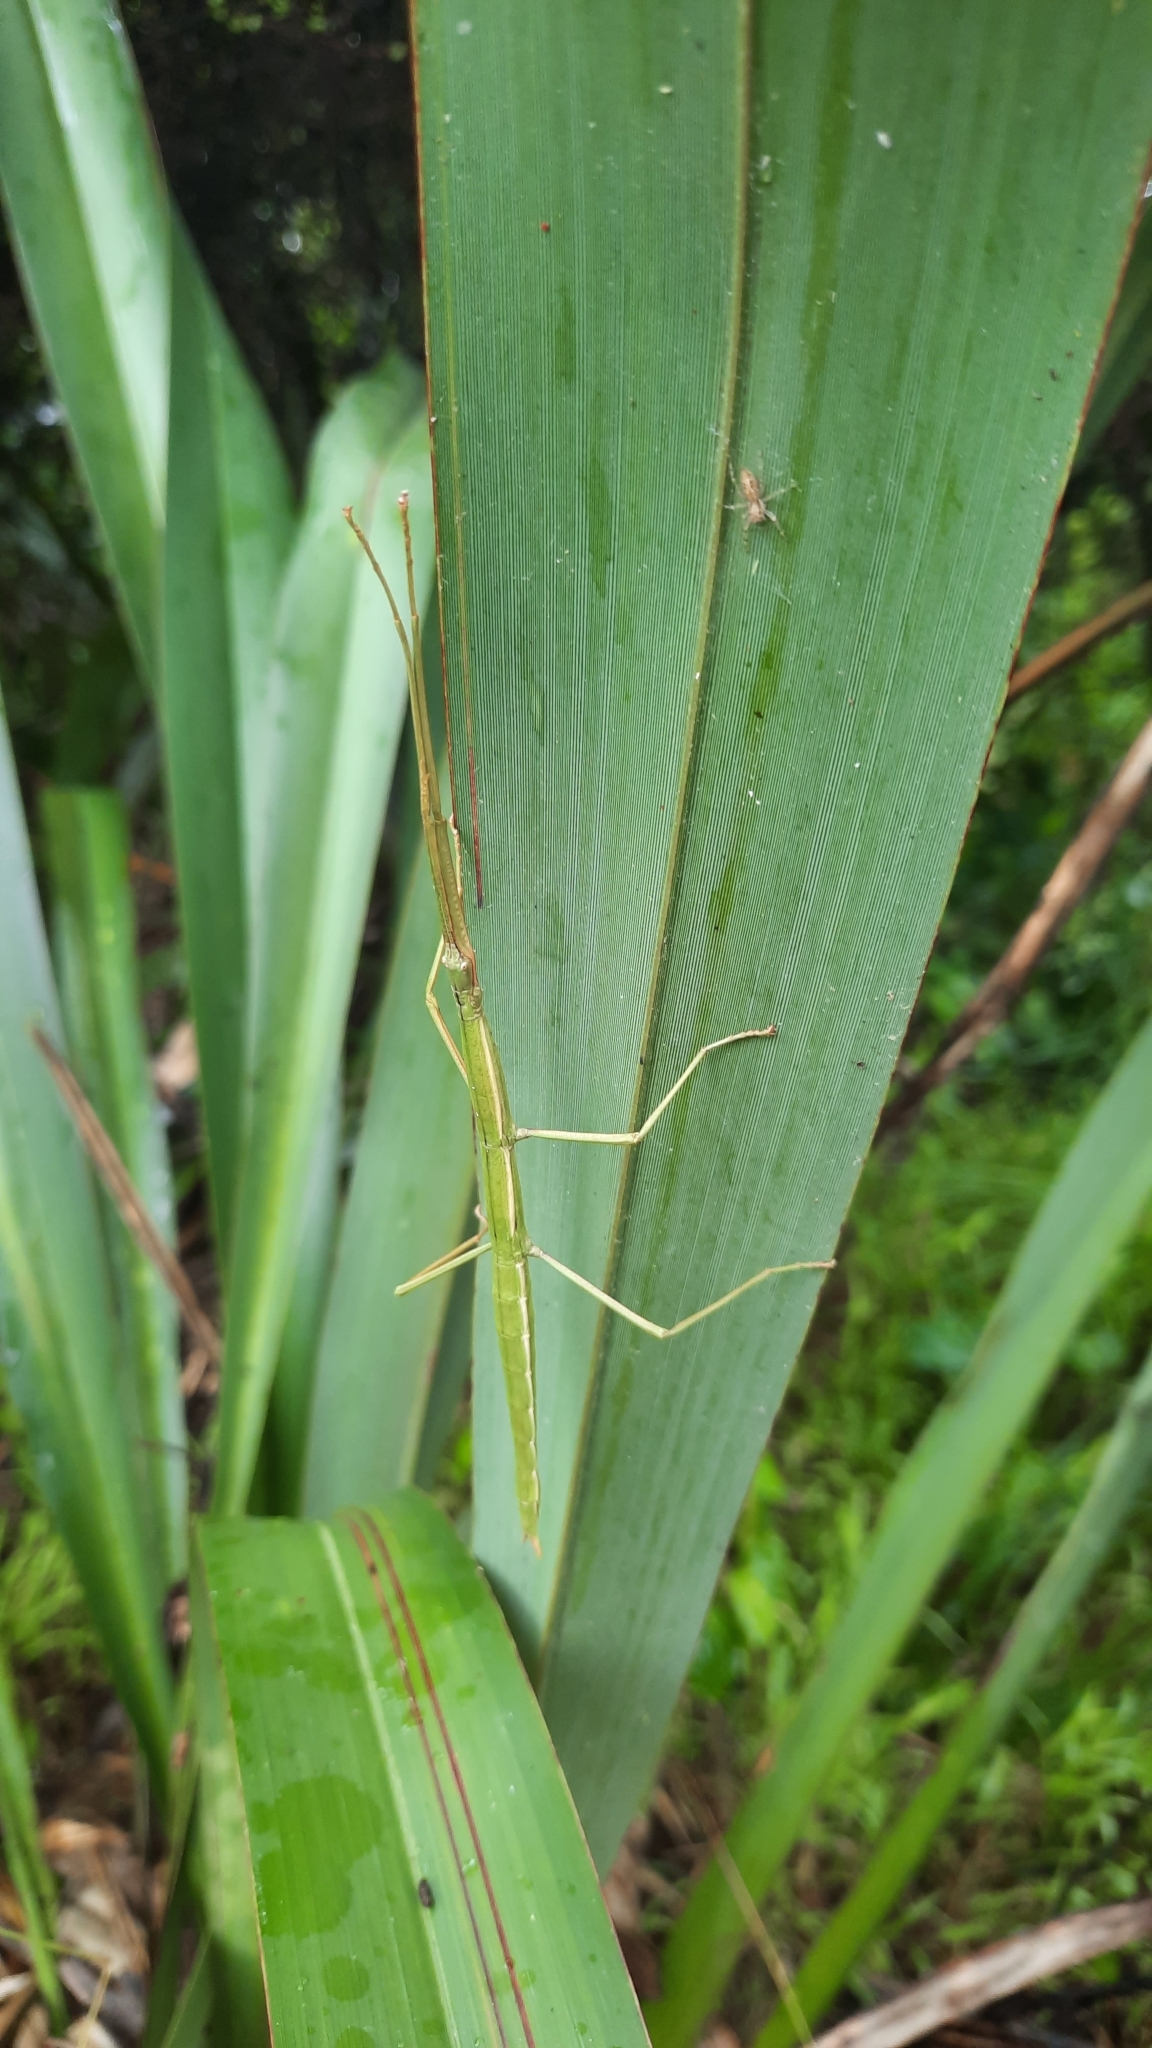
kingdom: Animalia
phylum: Arthropoda
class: Insecta
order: Phasmida
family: Phasmatidae
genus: Clitarchus
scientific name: Clitarchus hookeri
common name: Smooth stick insect
